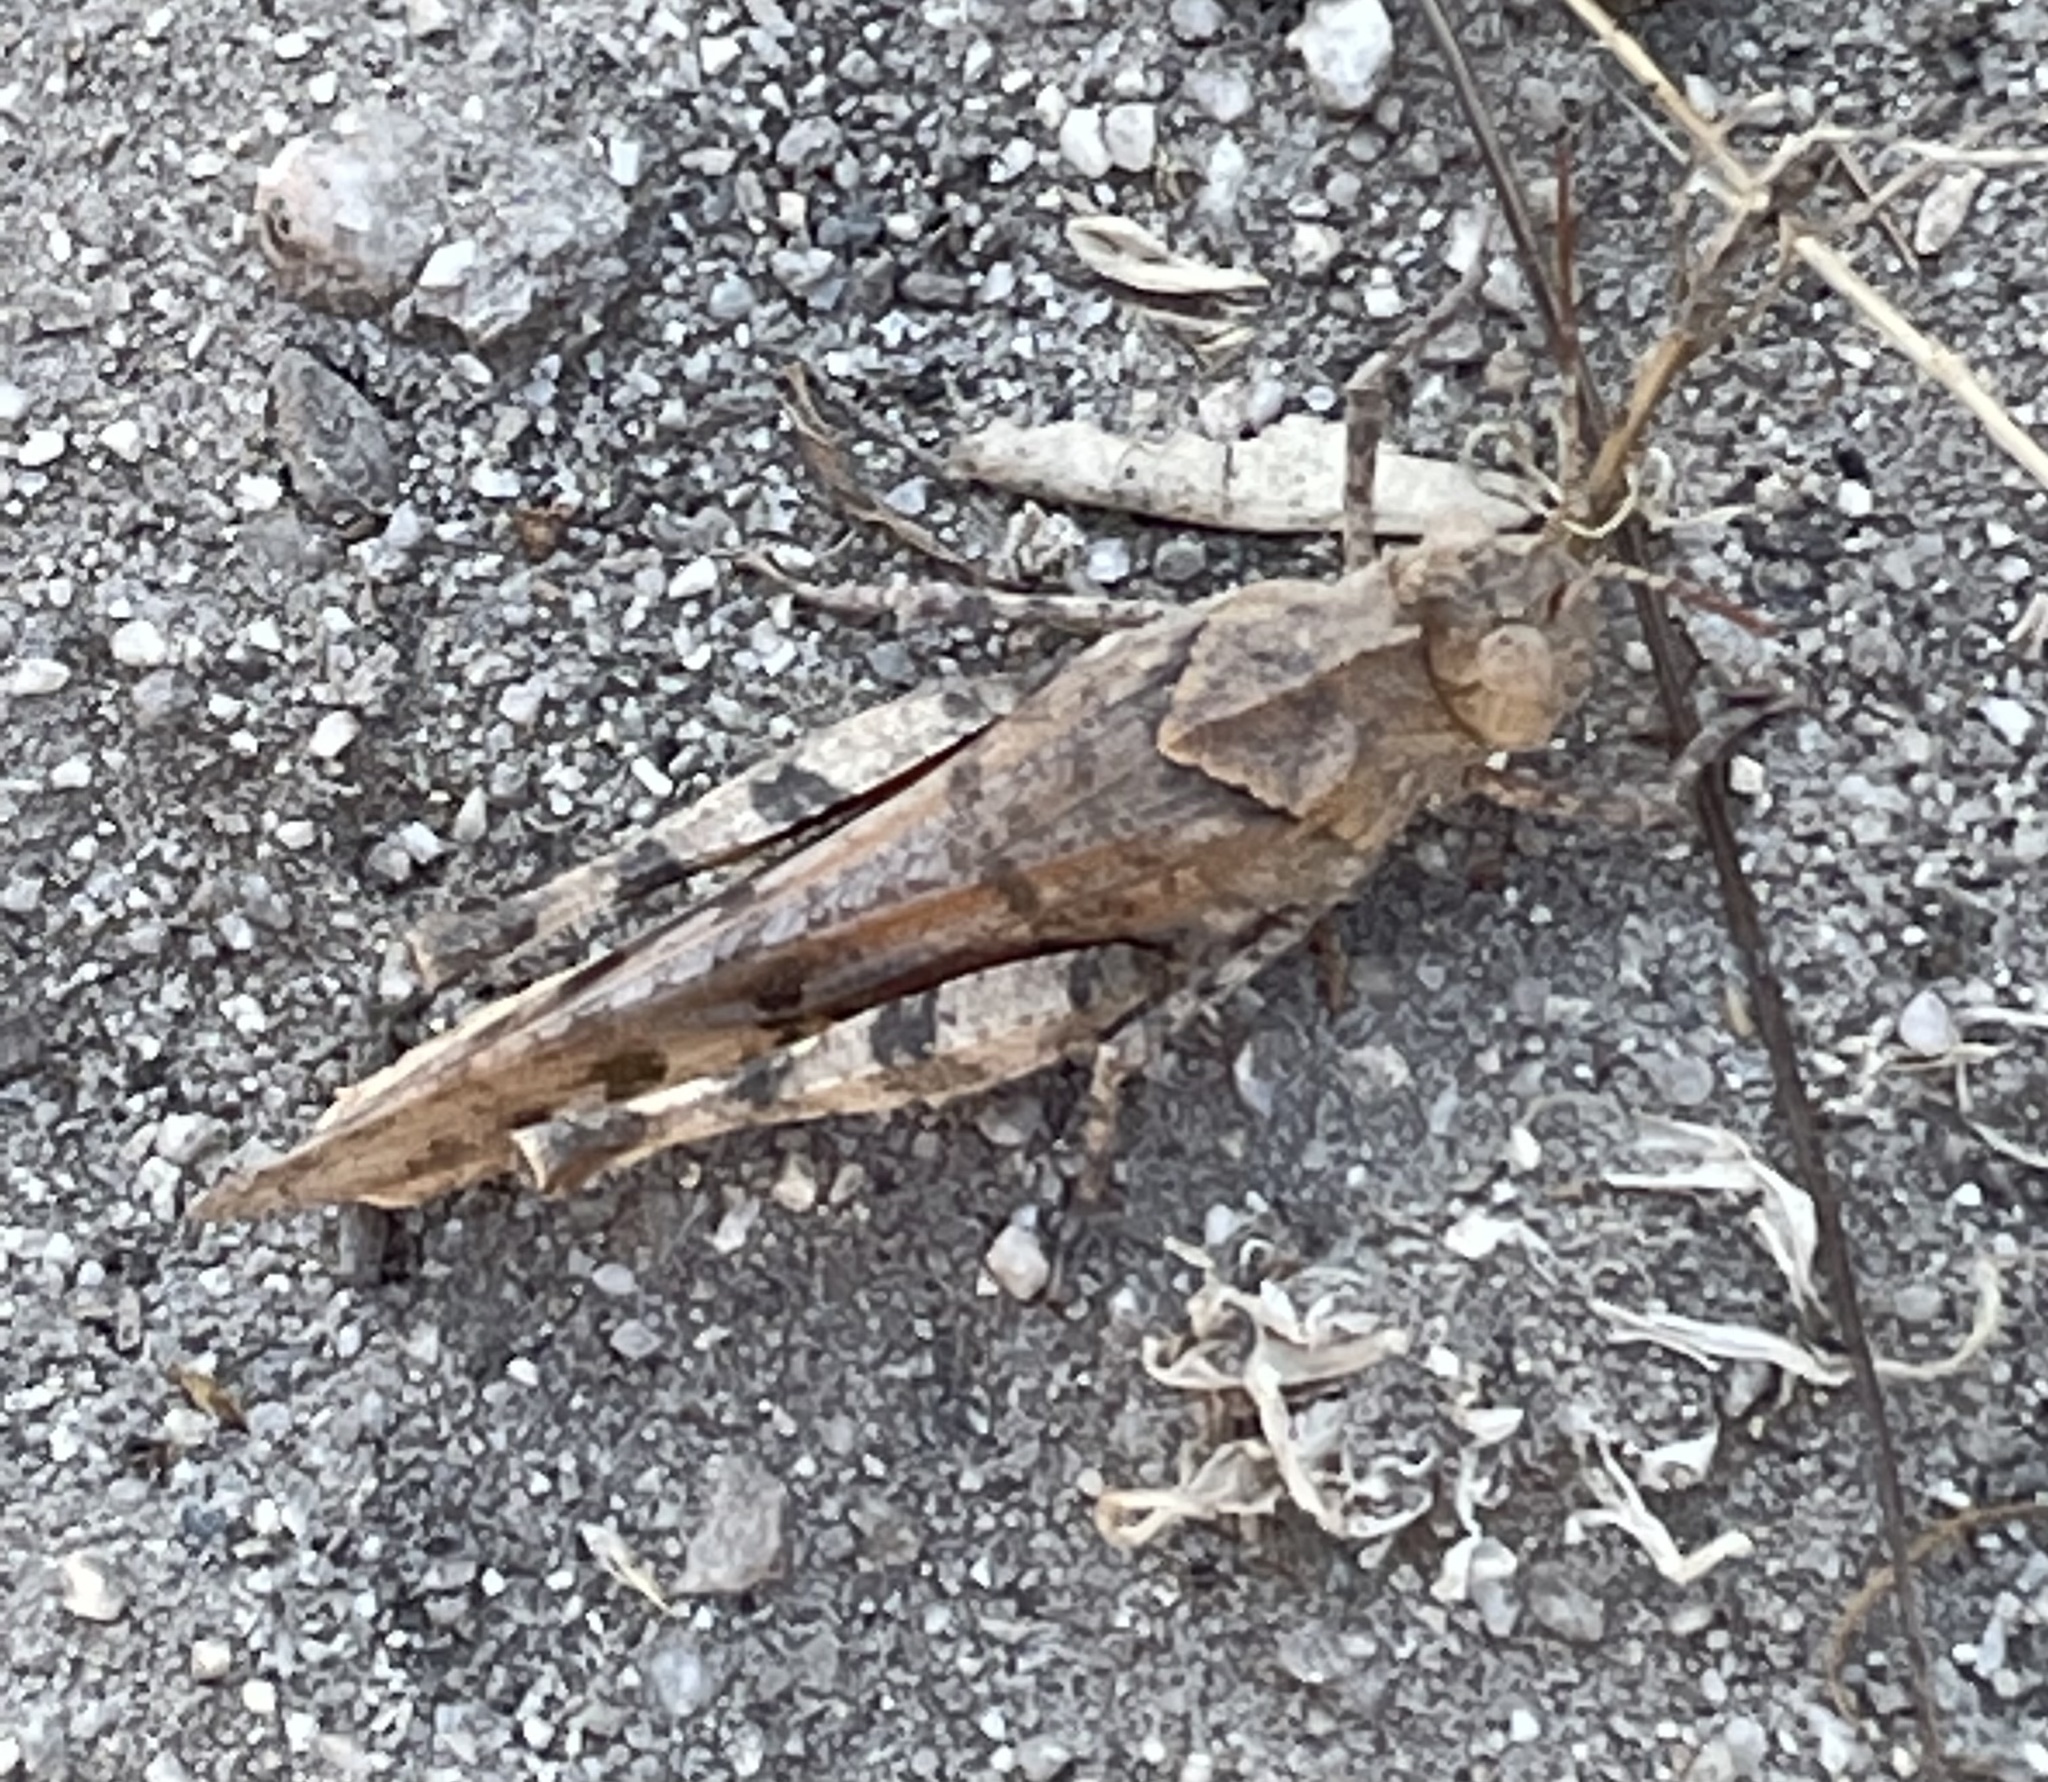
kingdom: Animalia
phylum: Arthropoda
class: Insecta
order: Orthoptera
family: Acrididae
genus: Dissosteira
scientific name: Dissosteira pictipennis
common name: California rose-winged grasshopper
